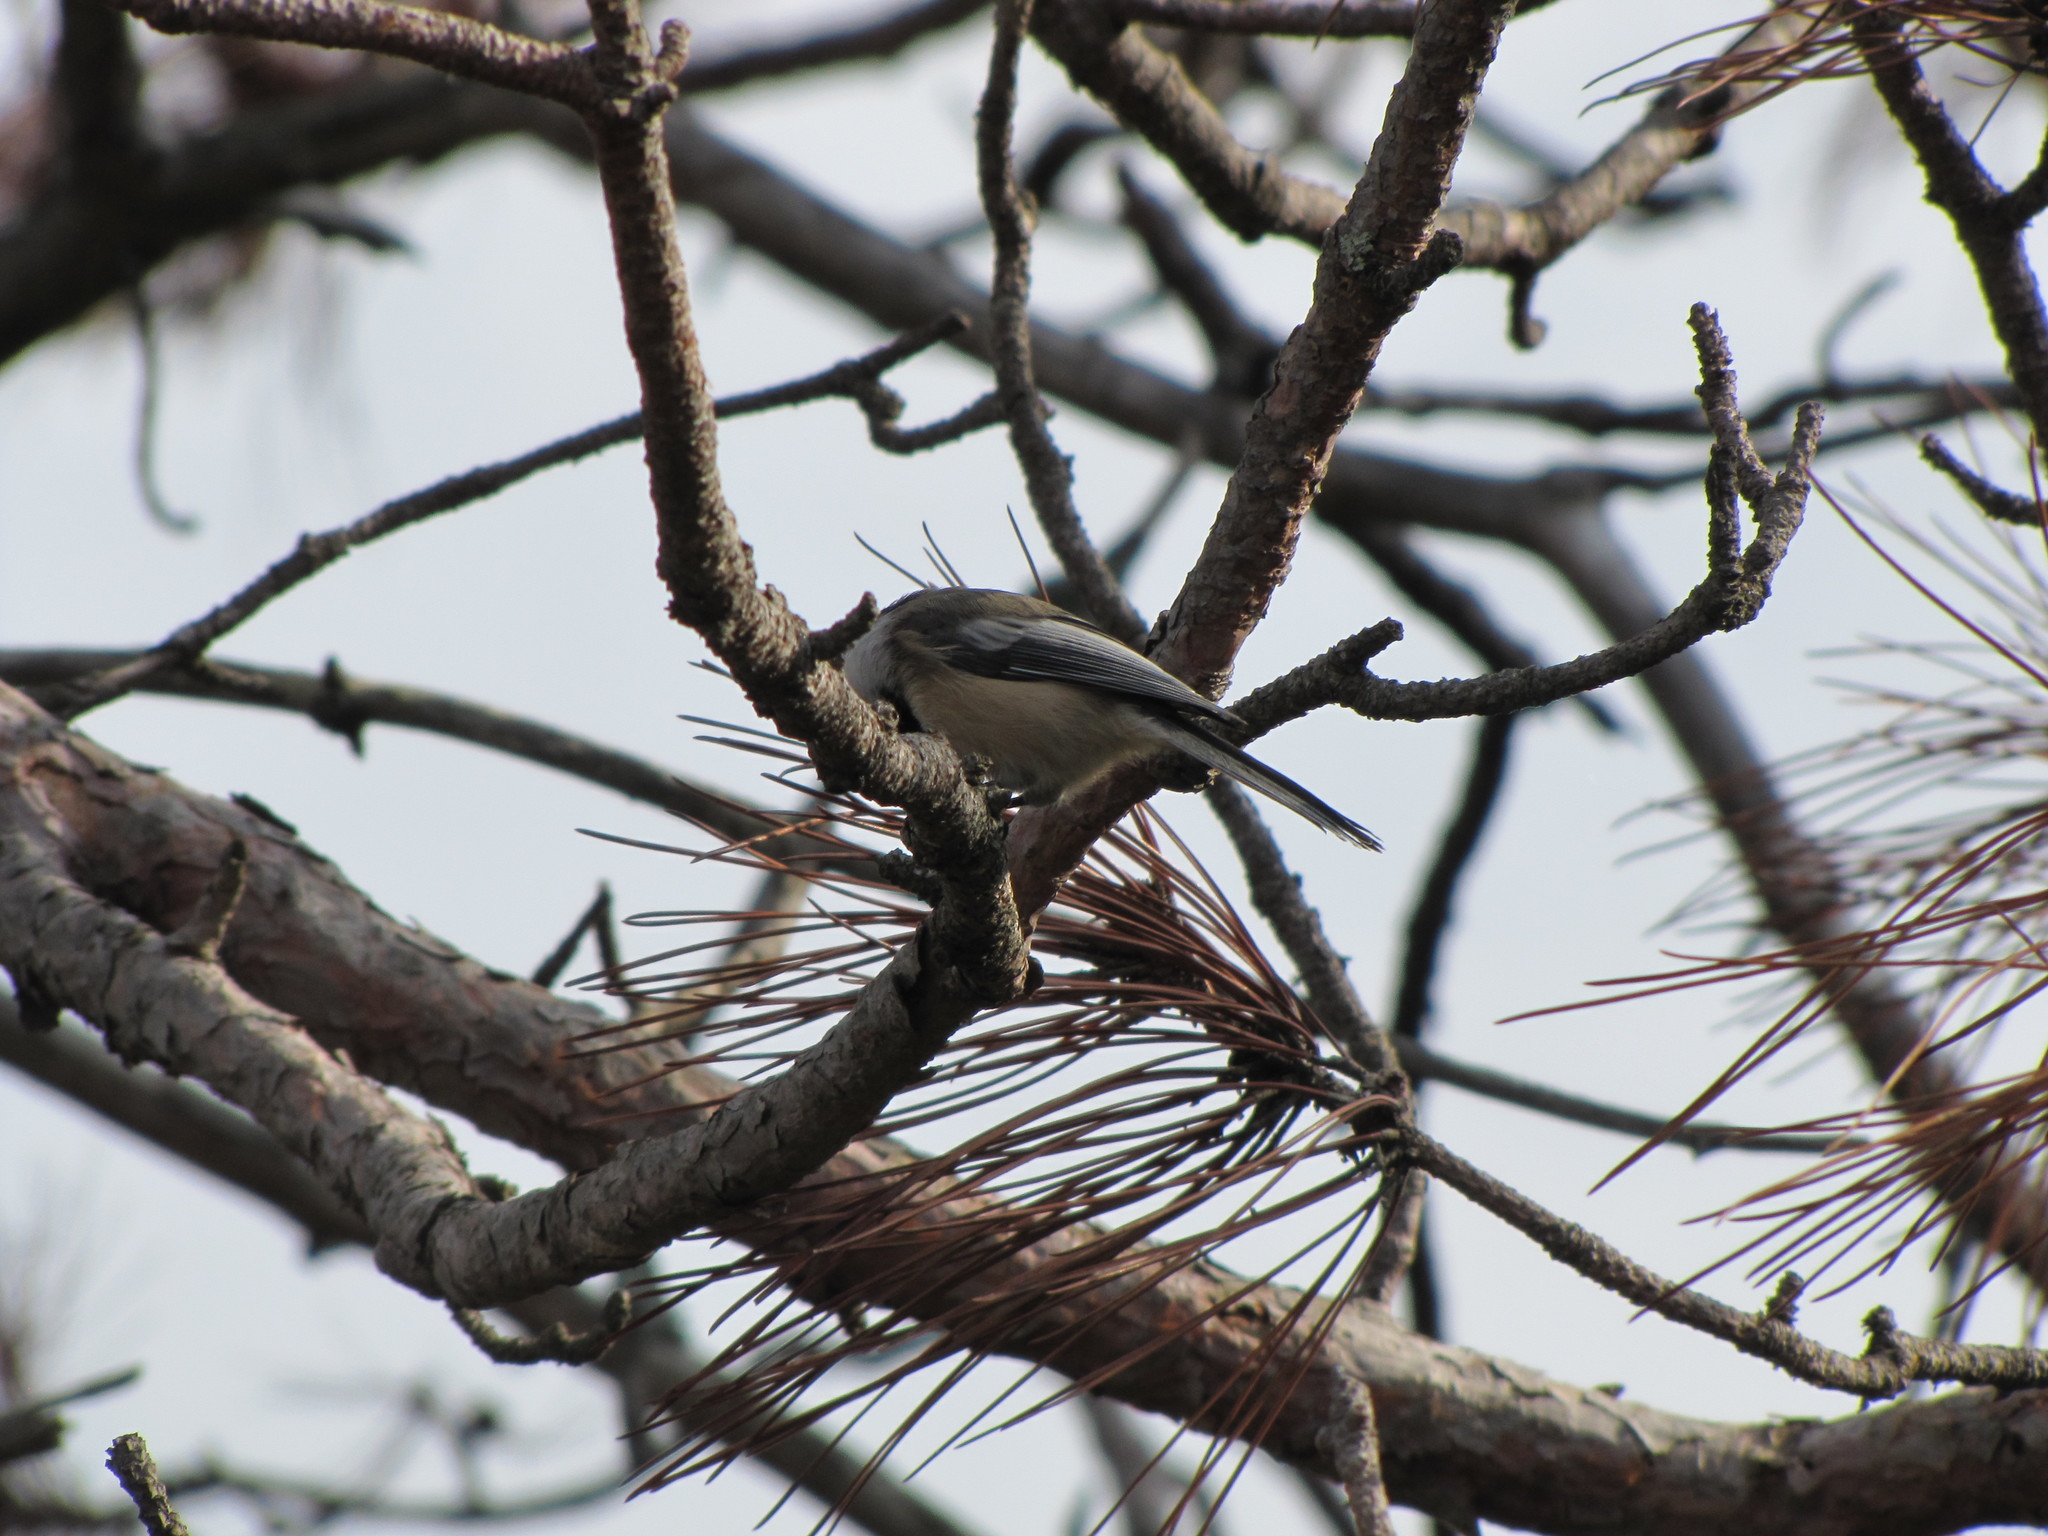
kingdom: Animalia
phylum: Chordata
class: Aves
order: Passeriformes
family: Paridae
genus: Poecile
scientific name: Poecile atricapillus
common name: Black-capped chickadee
